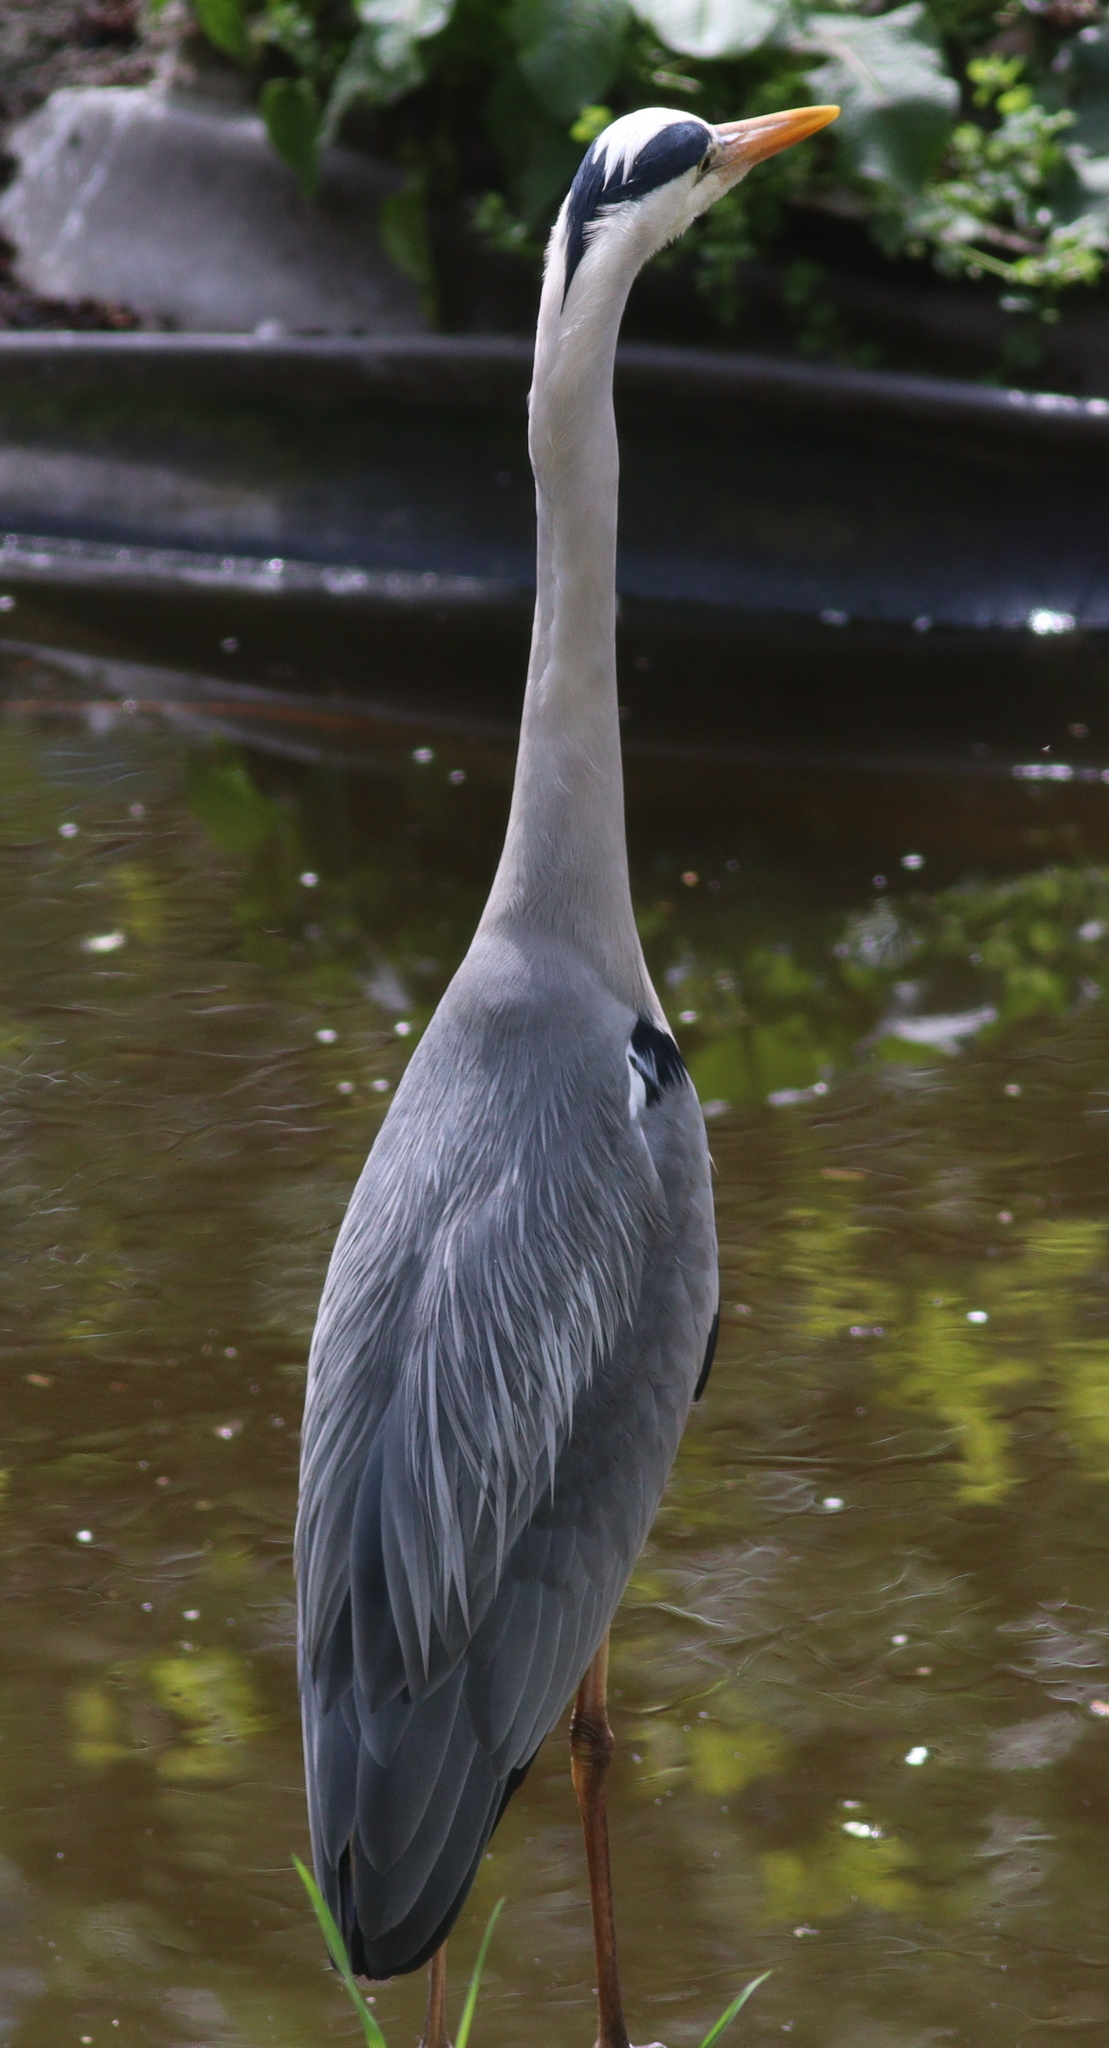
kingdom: Animalia
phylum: Chordata
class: Aves
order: Pelecaniformes
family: Ardeidae
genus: Ardea
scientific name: Ardea cinerea
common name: Grey heron
